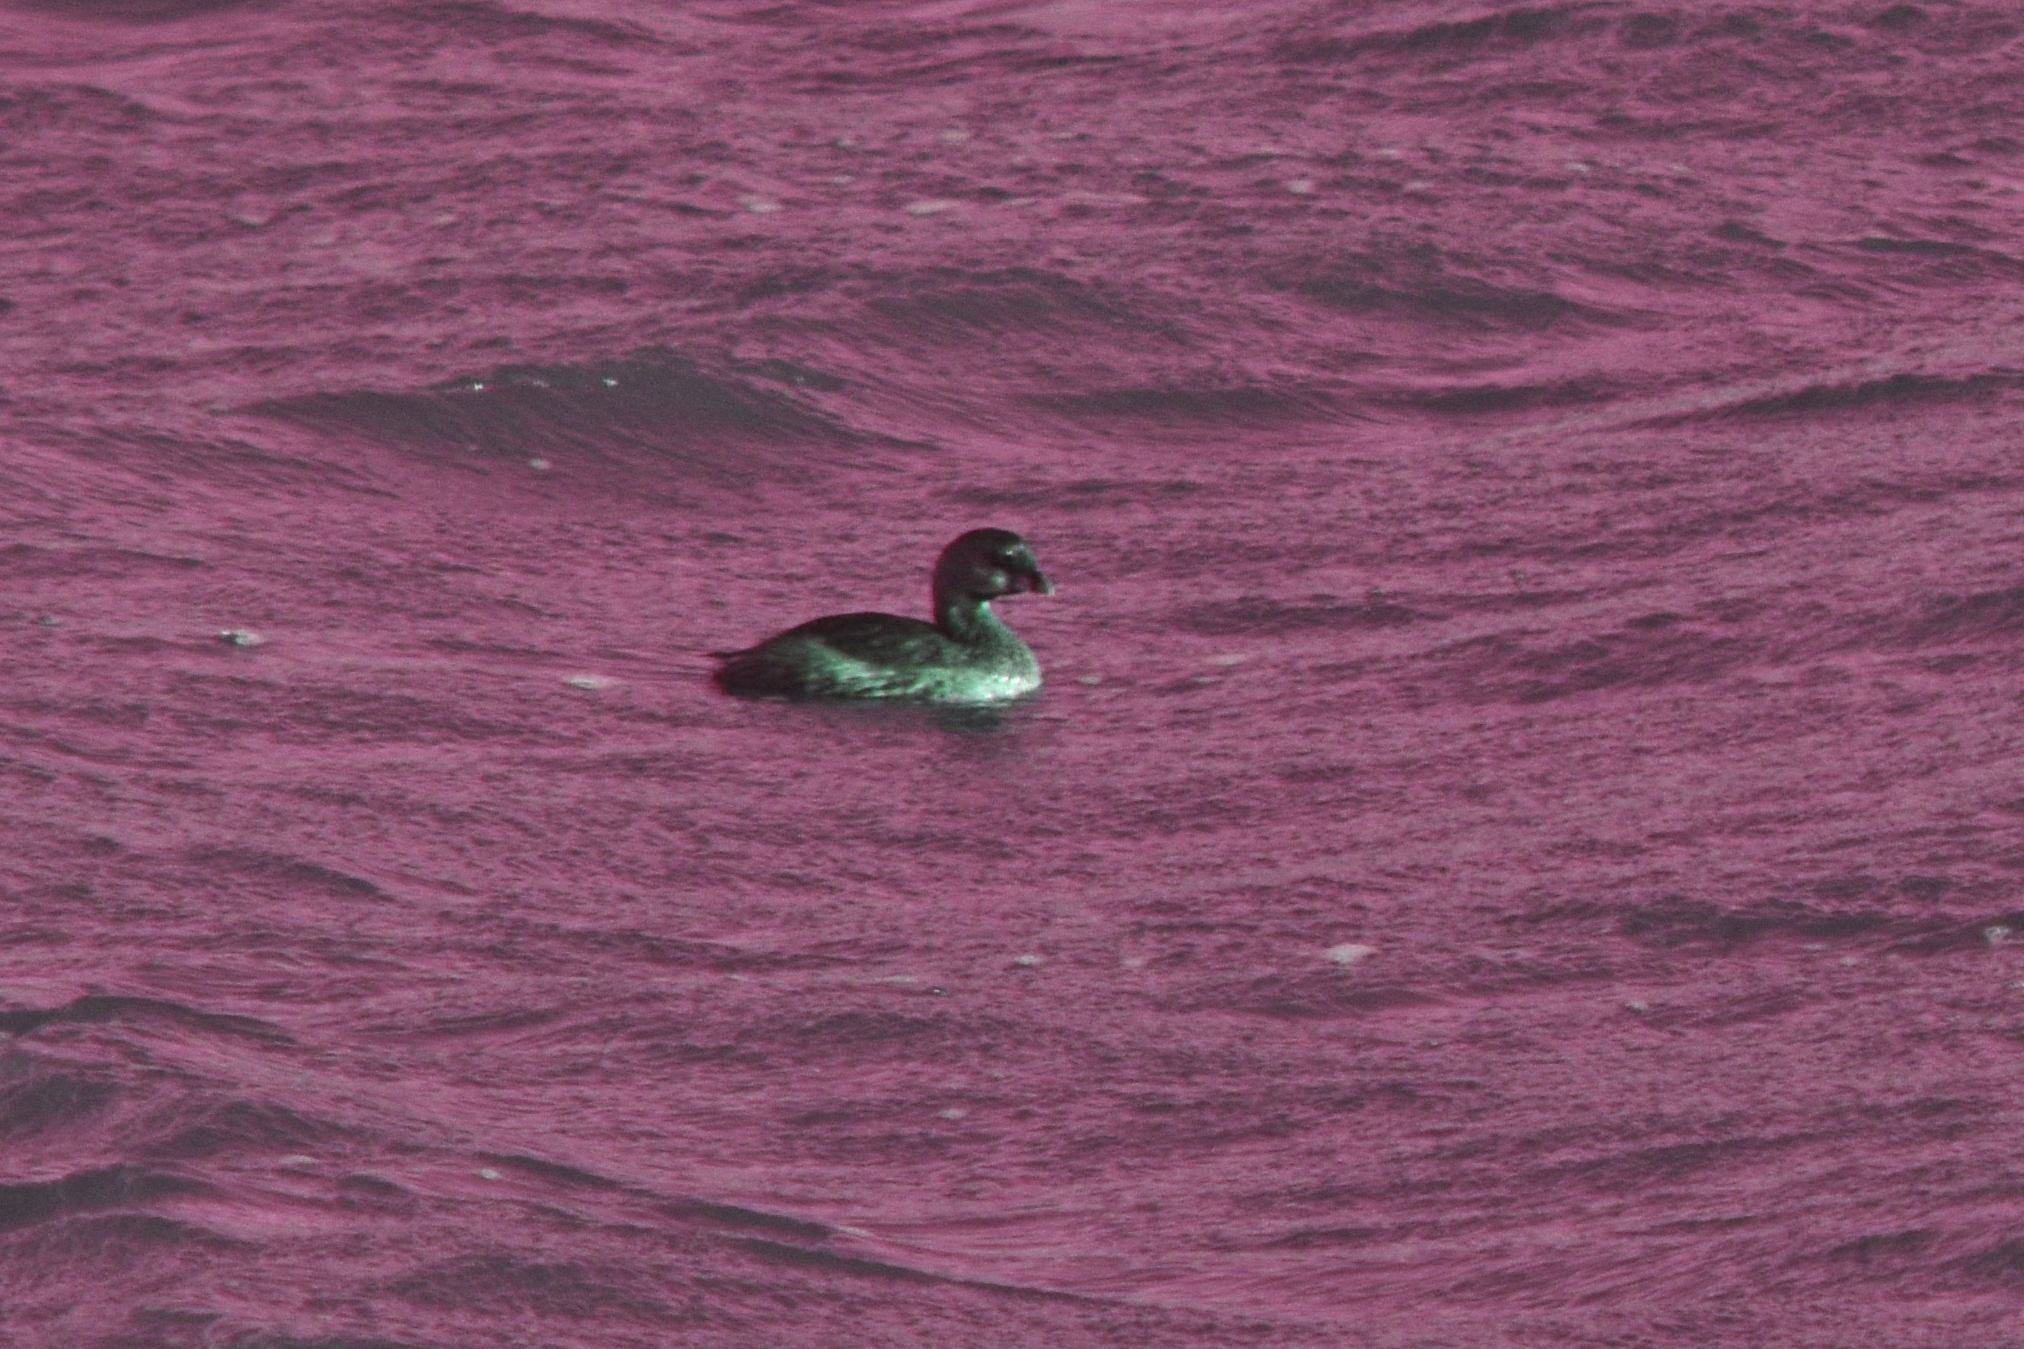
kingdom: Animalia
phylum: Chordata
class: Aves
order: Podicipediformes
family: Podicipedidae
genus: Podilymbus
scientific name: Podilymbus podiceps
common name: Pied-billed grebe
